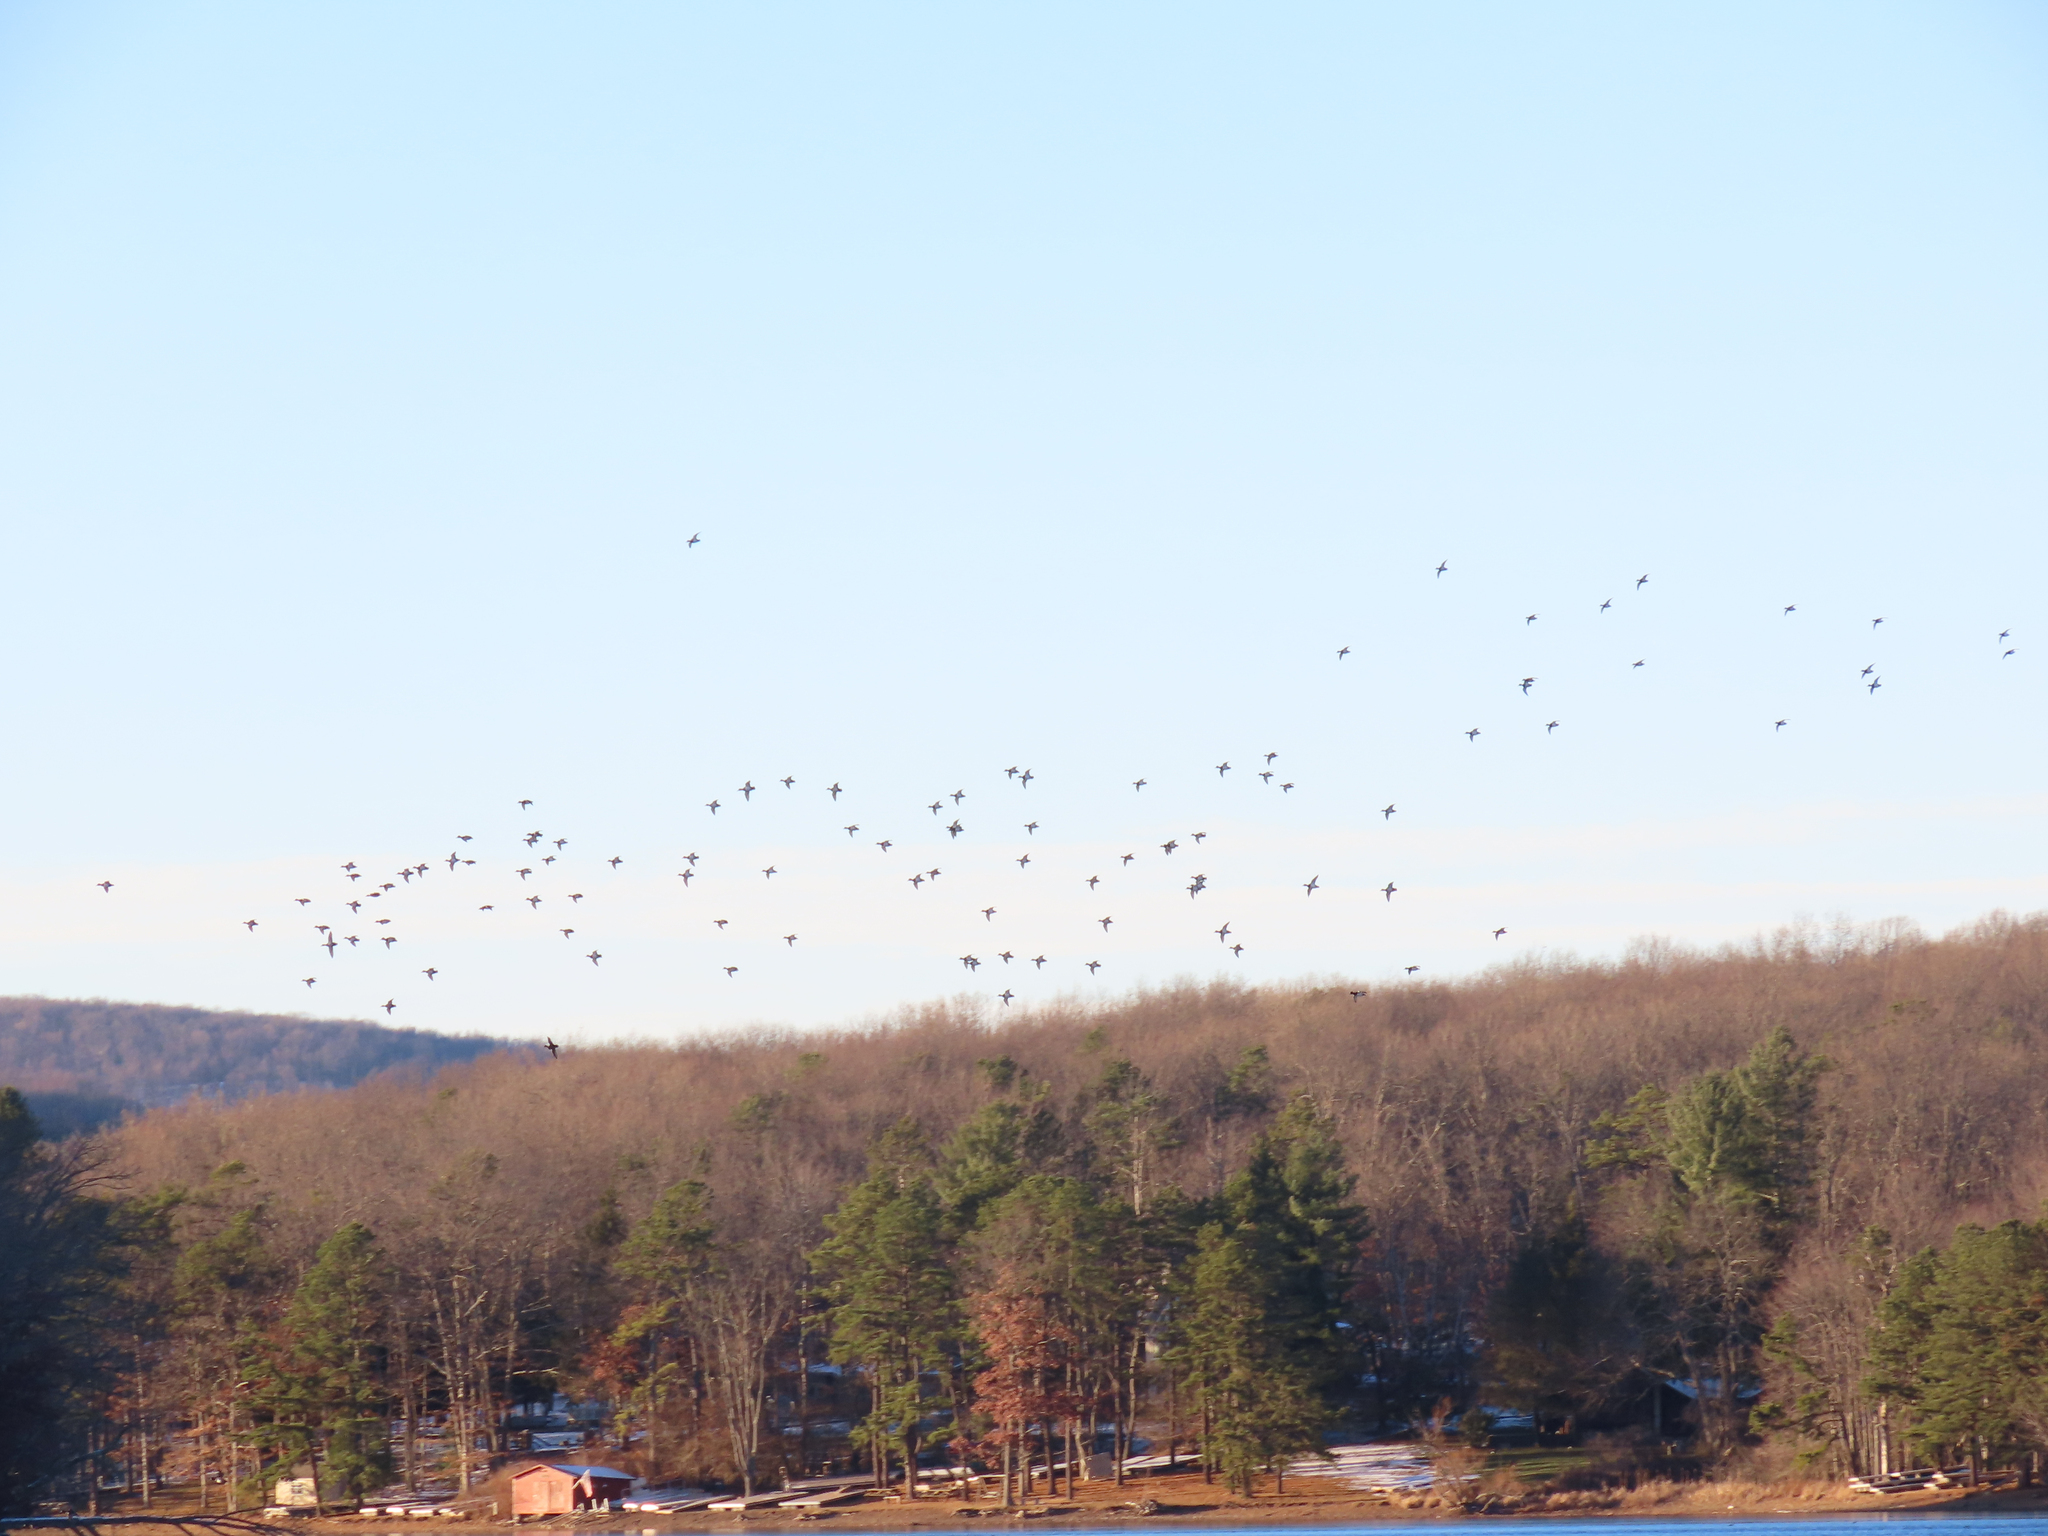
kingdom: Animalia
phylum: Chordata
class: Aves
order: Anseriformes
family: Anatidae
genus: Aythya
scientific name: Aythya collaris
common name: Ring-necked duck
